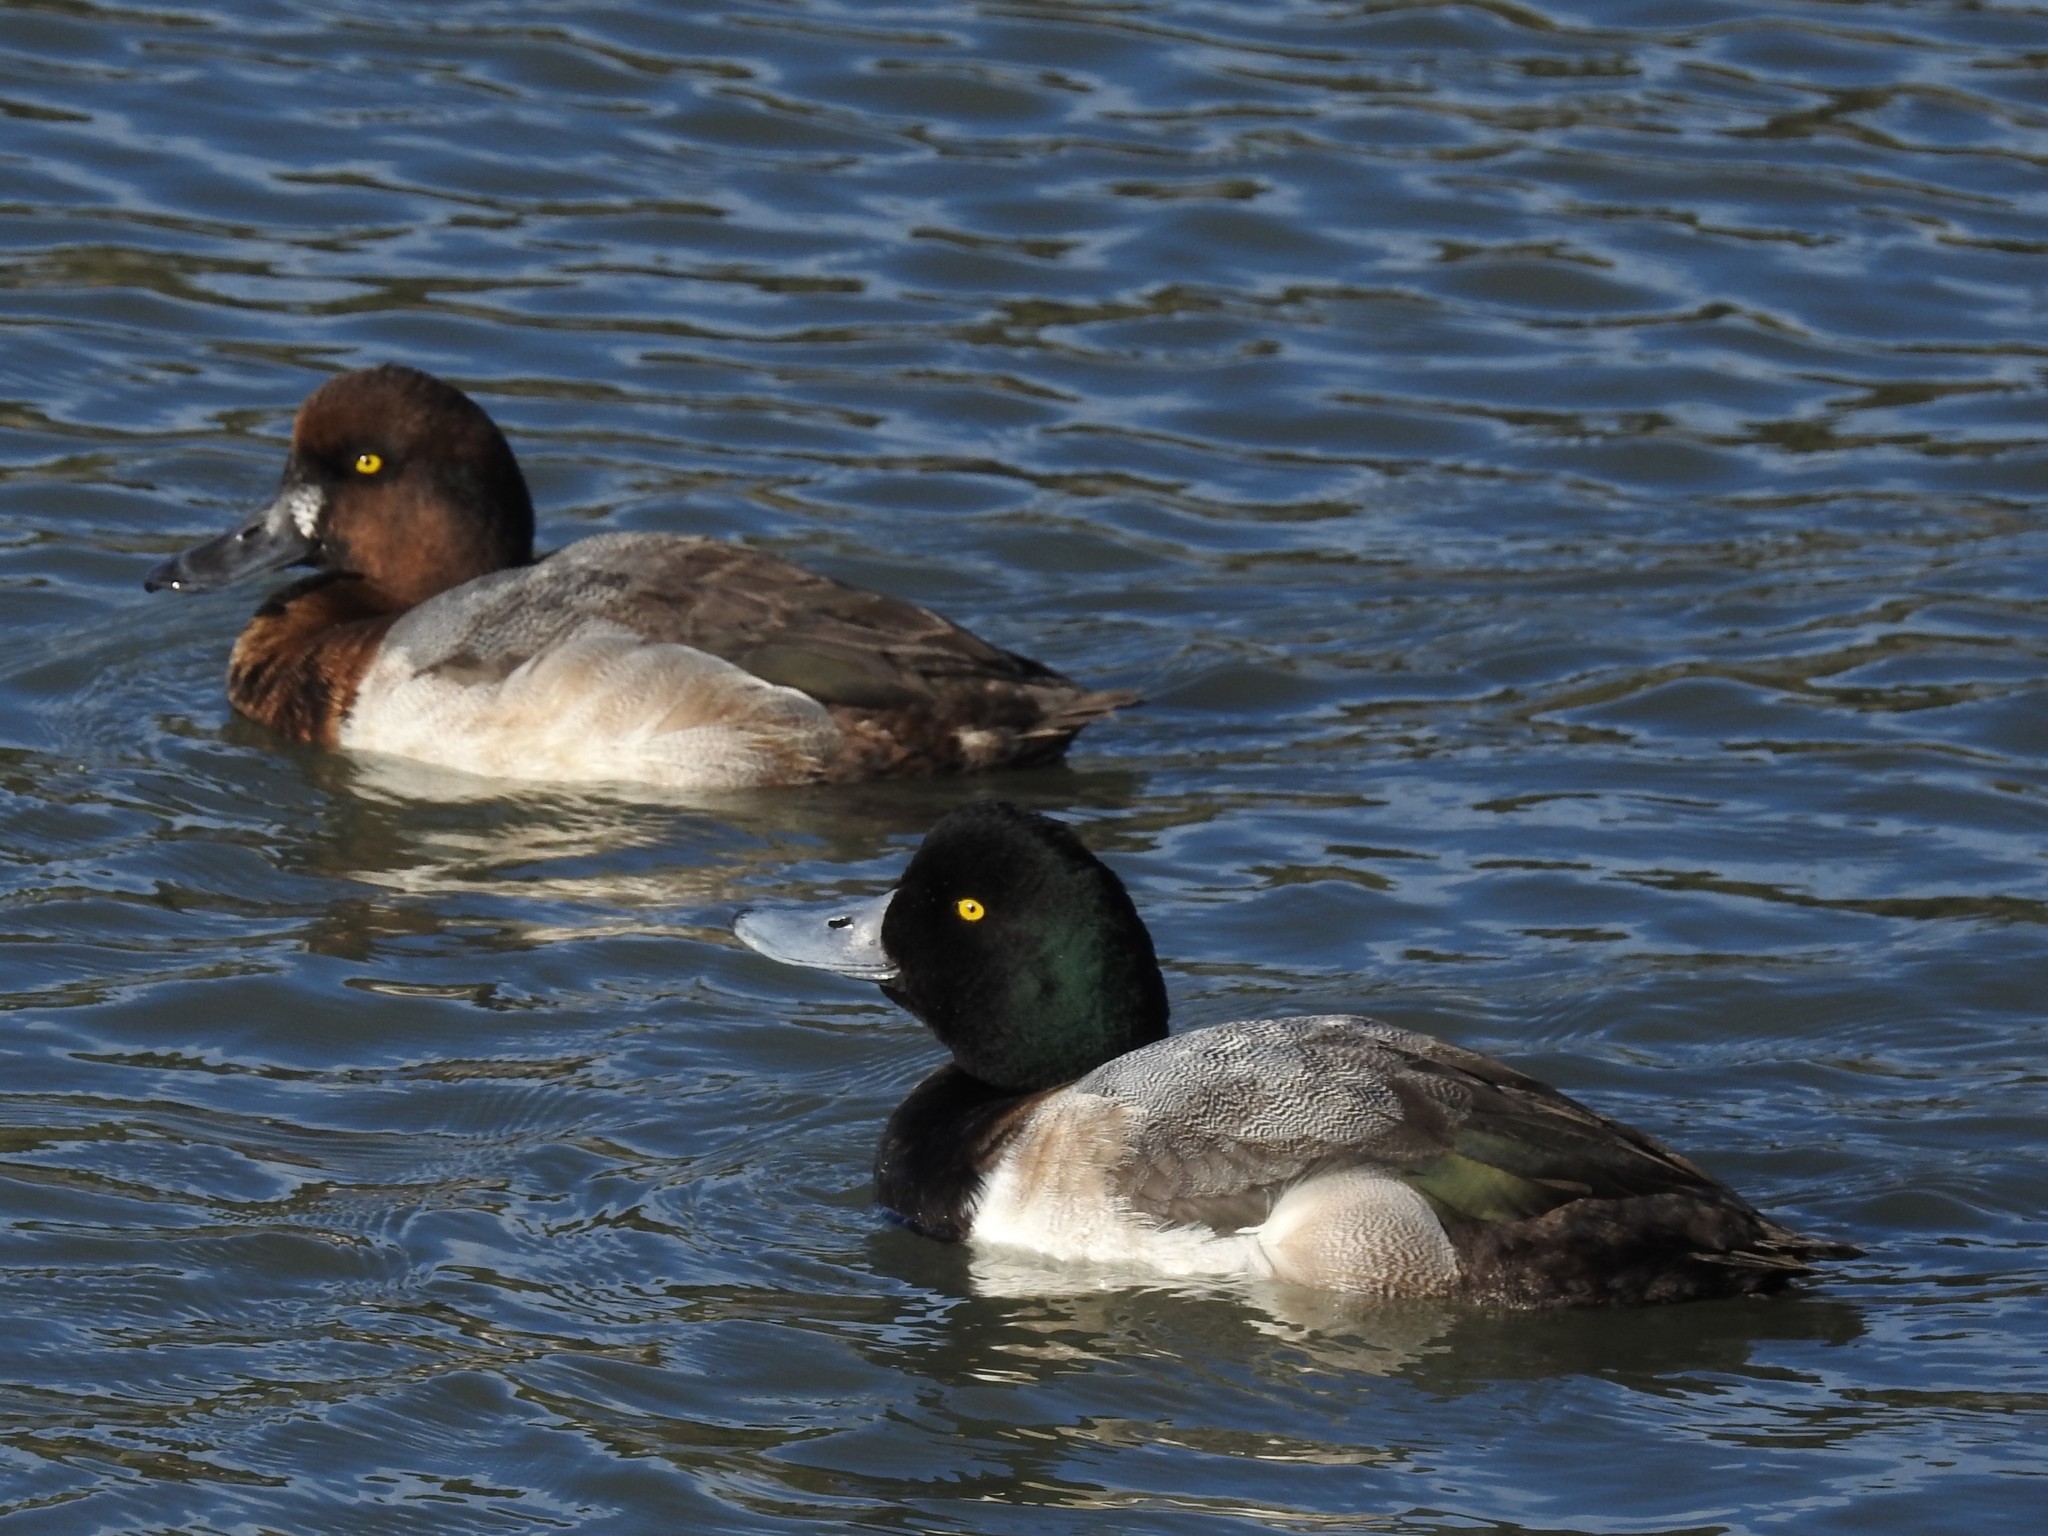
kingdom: Animalia
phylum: Chordata
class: Aves
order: Anseriformes
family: Anatidae
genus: Aythya
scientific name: Aythya marila
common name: Greater scaup
